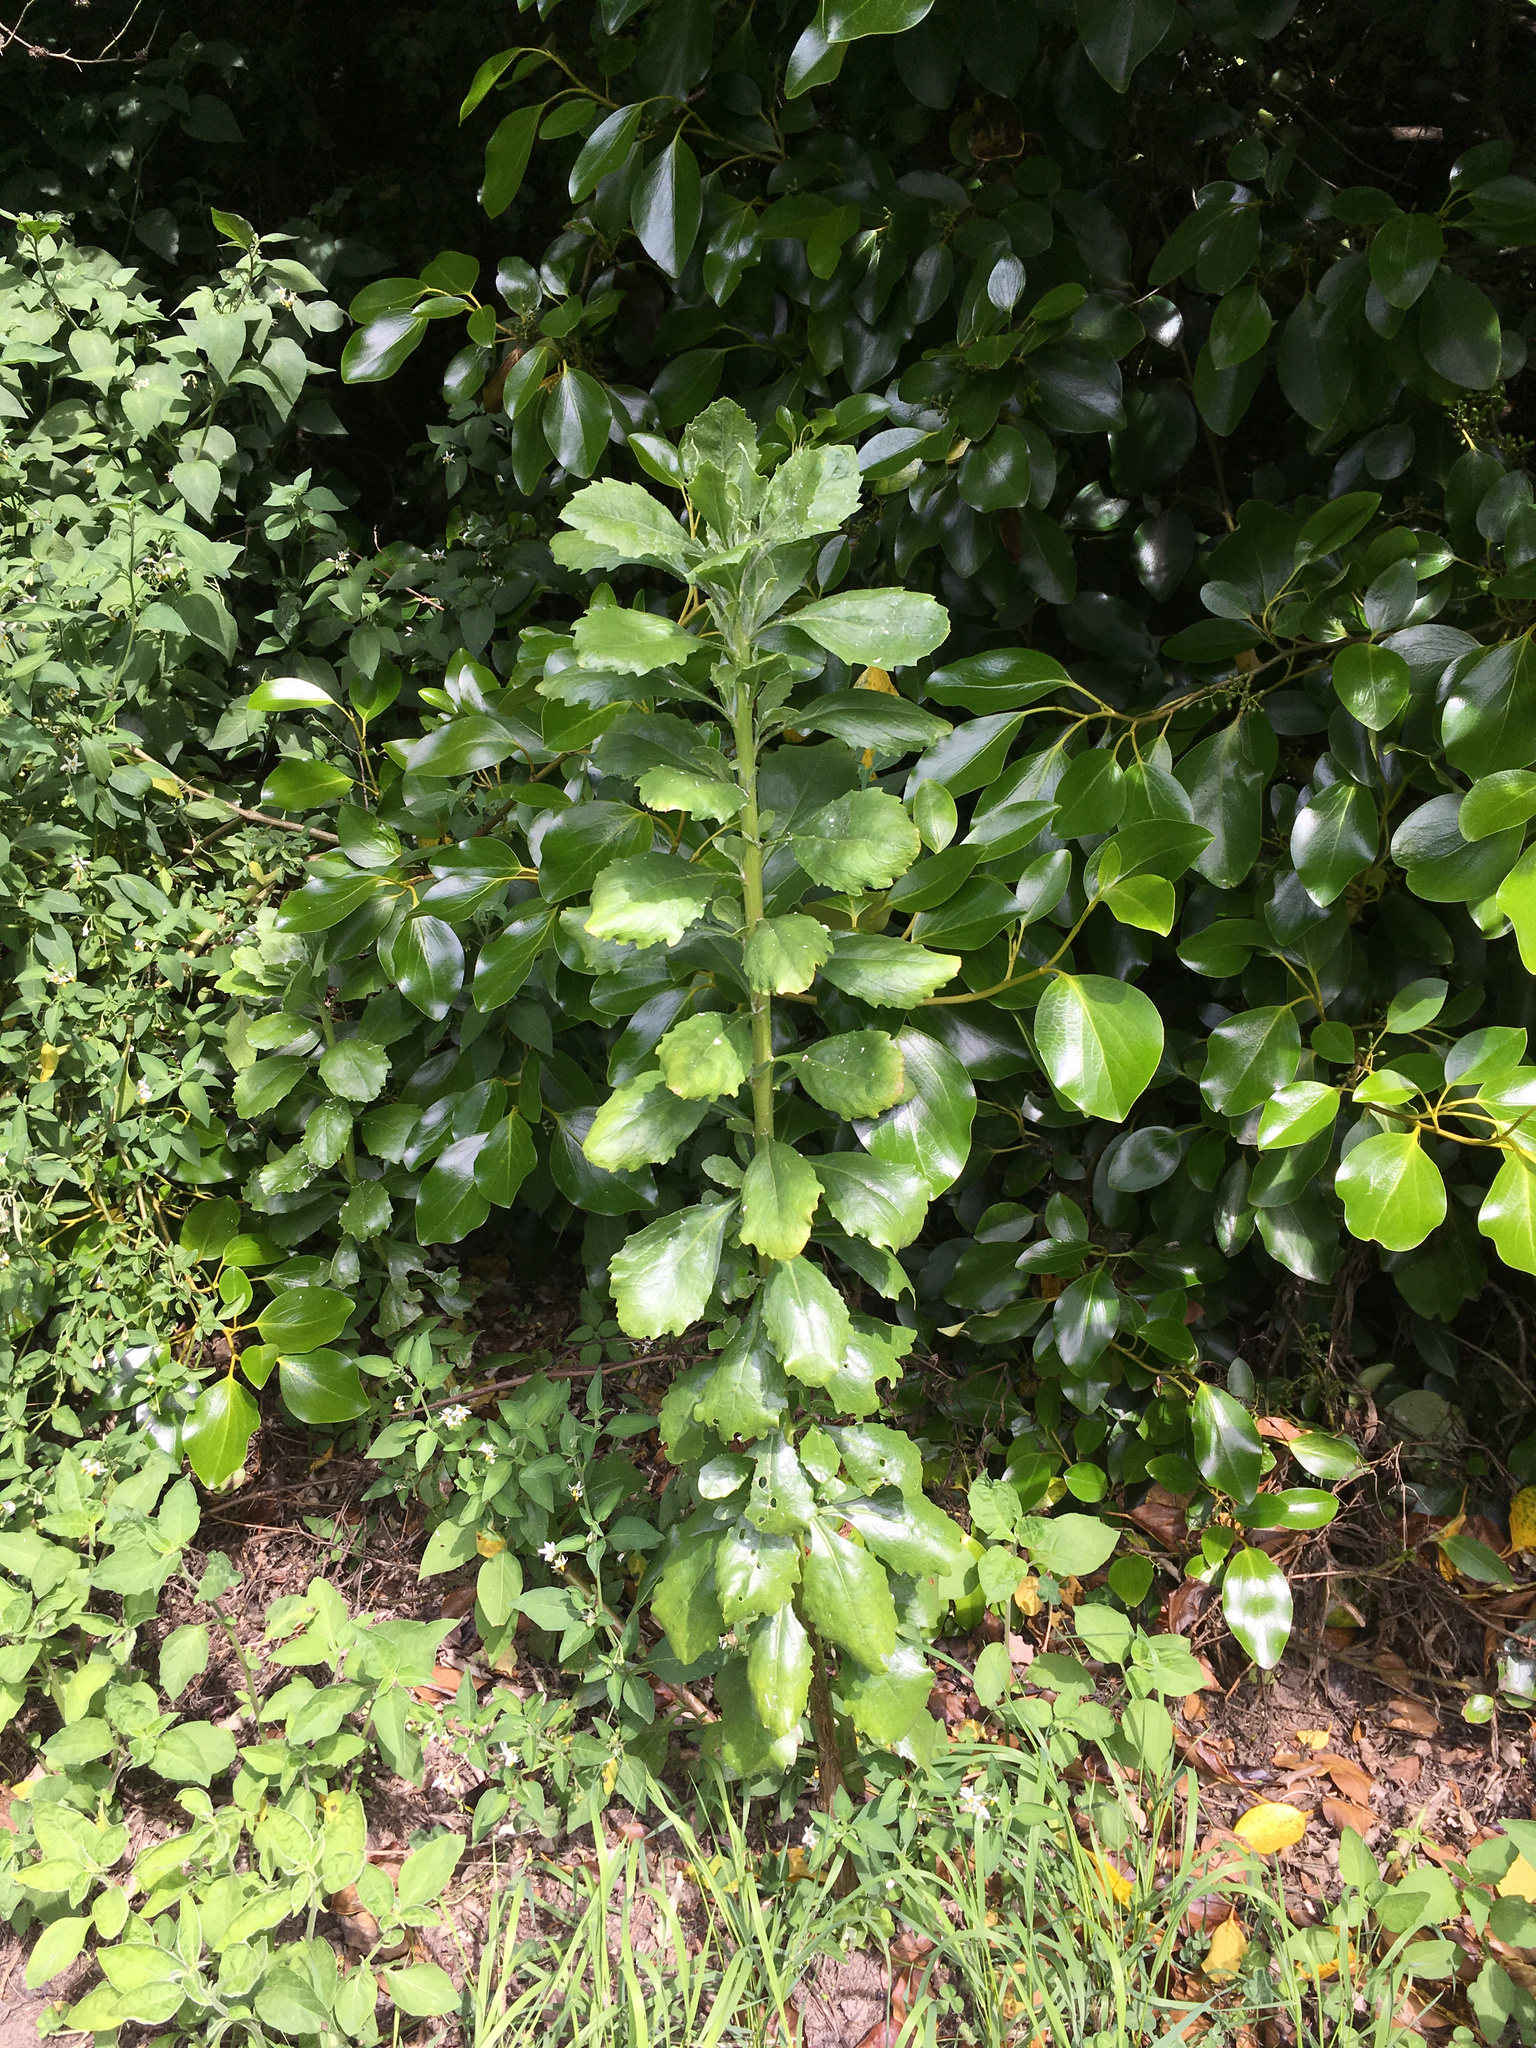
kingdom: Plantae
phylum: Tracheophyta
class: Magnoliopsida
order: Asterales
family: Asteraceae
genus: Osteospermum
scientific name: Osteospermum moniliferum
